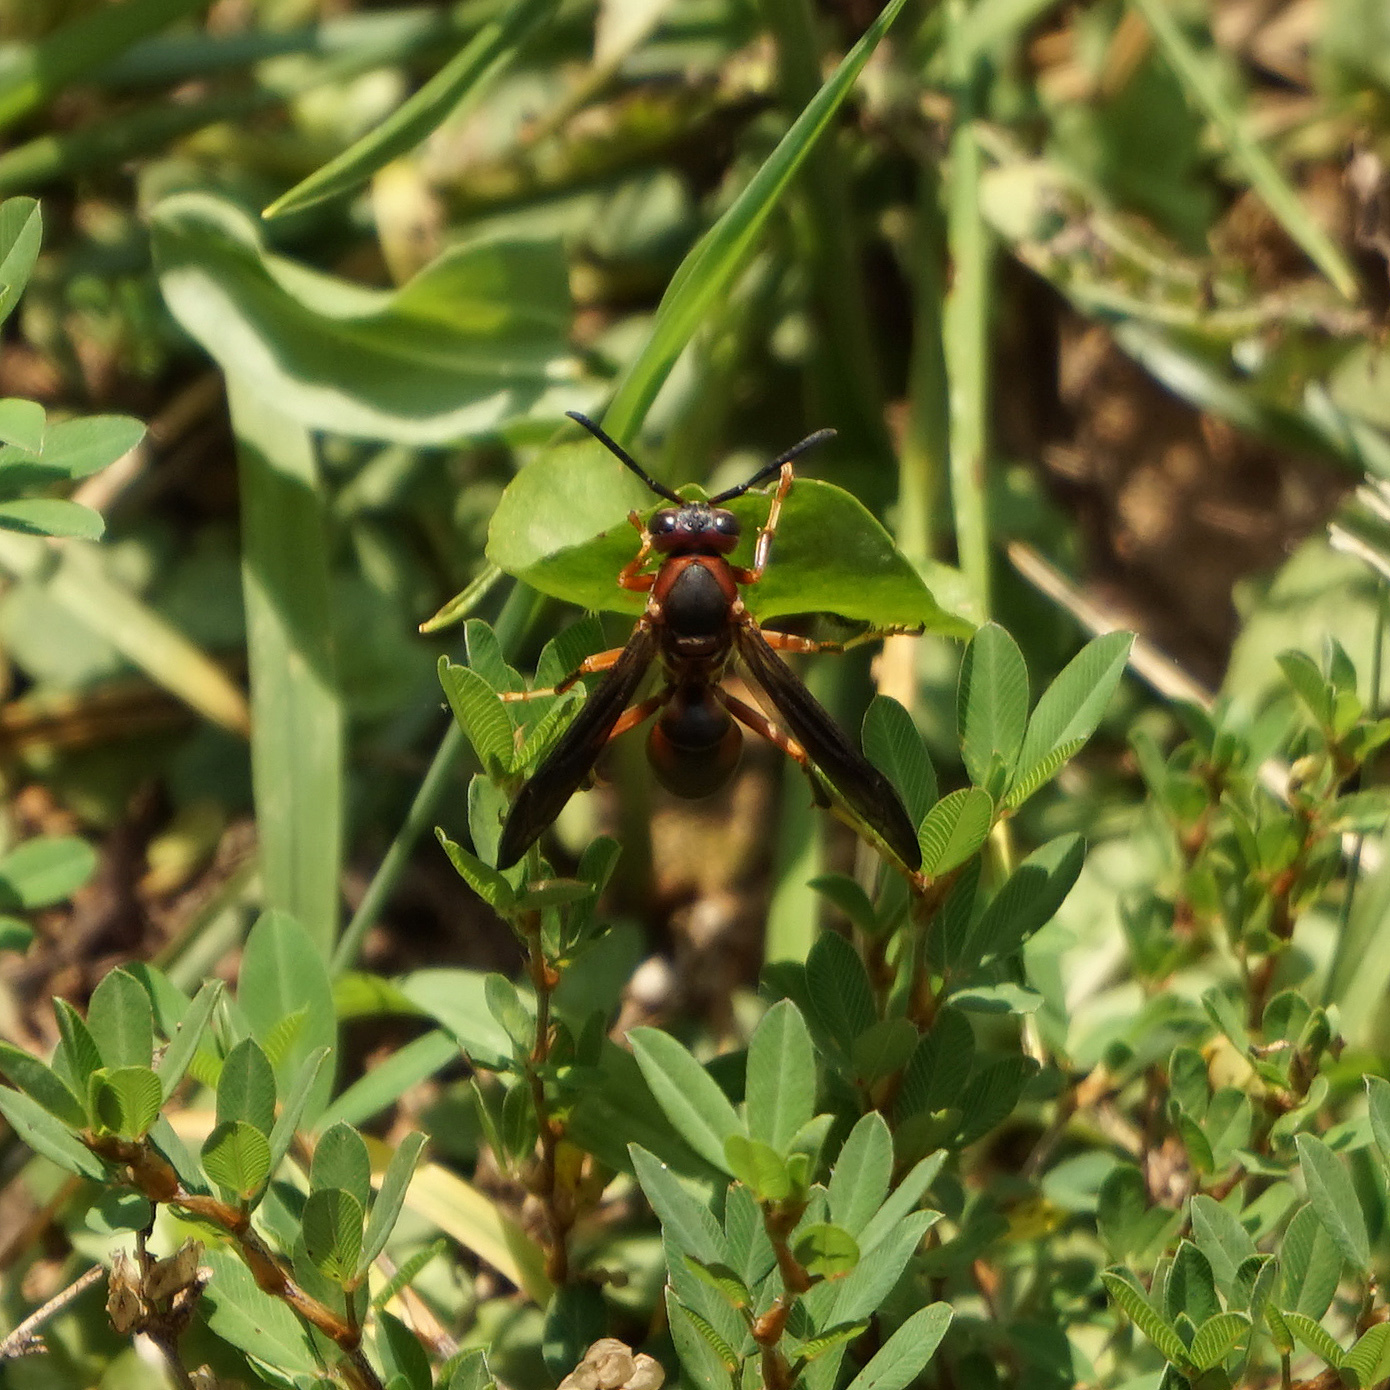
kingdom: Animalia
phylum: Arthropoda
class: Insecta
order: Hymenoptera
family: Eumenidae
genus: Polistes
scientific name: Polistes metricus
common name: Metric paper wasp
